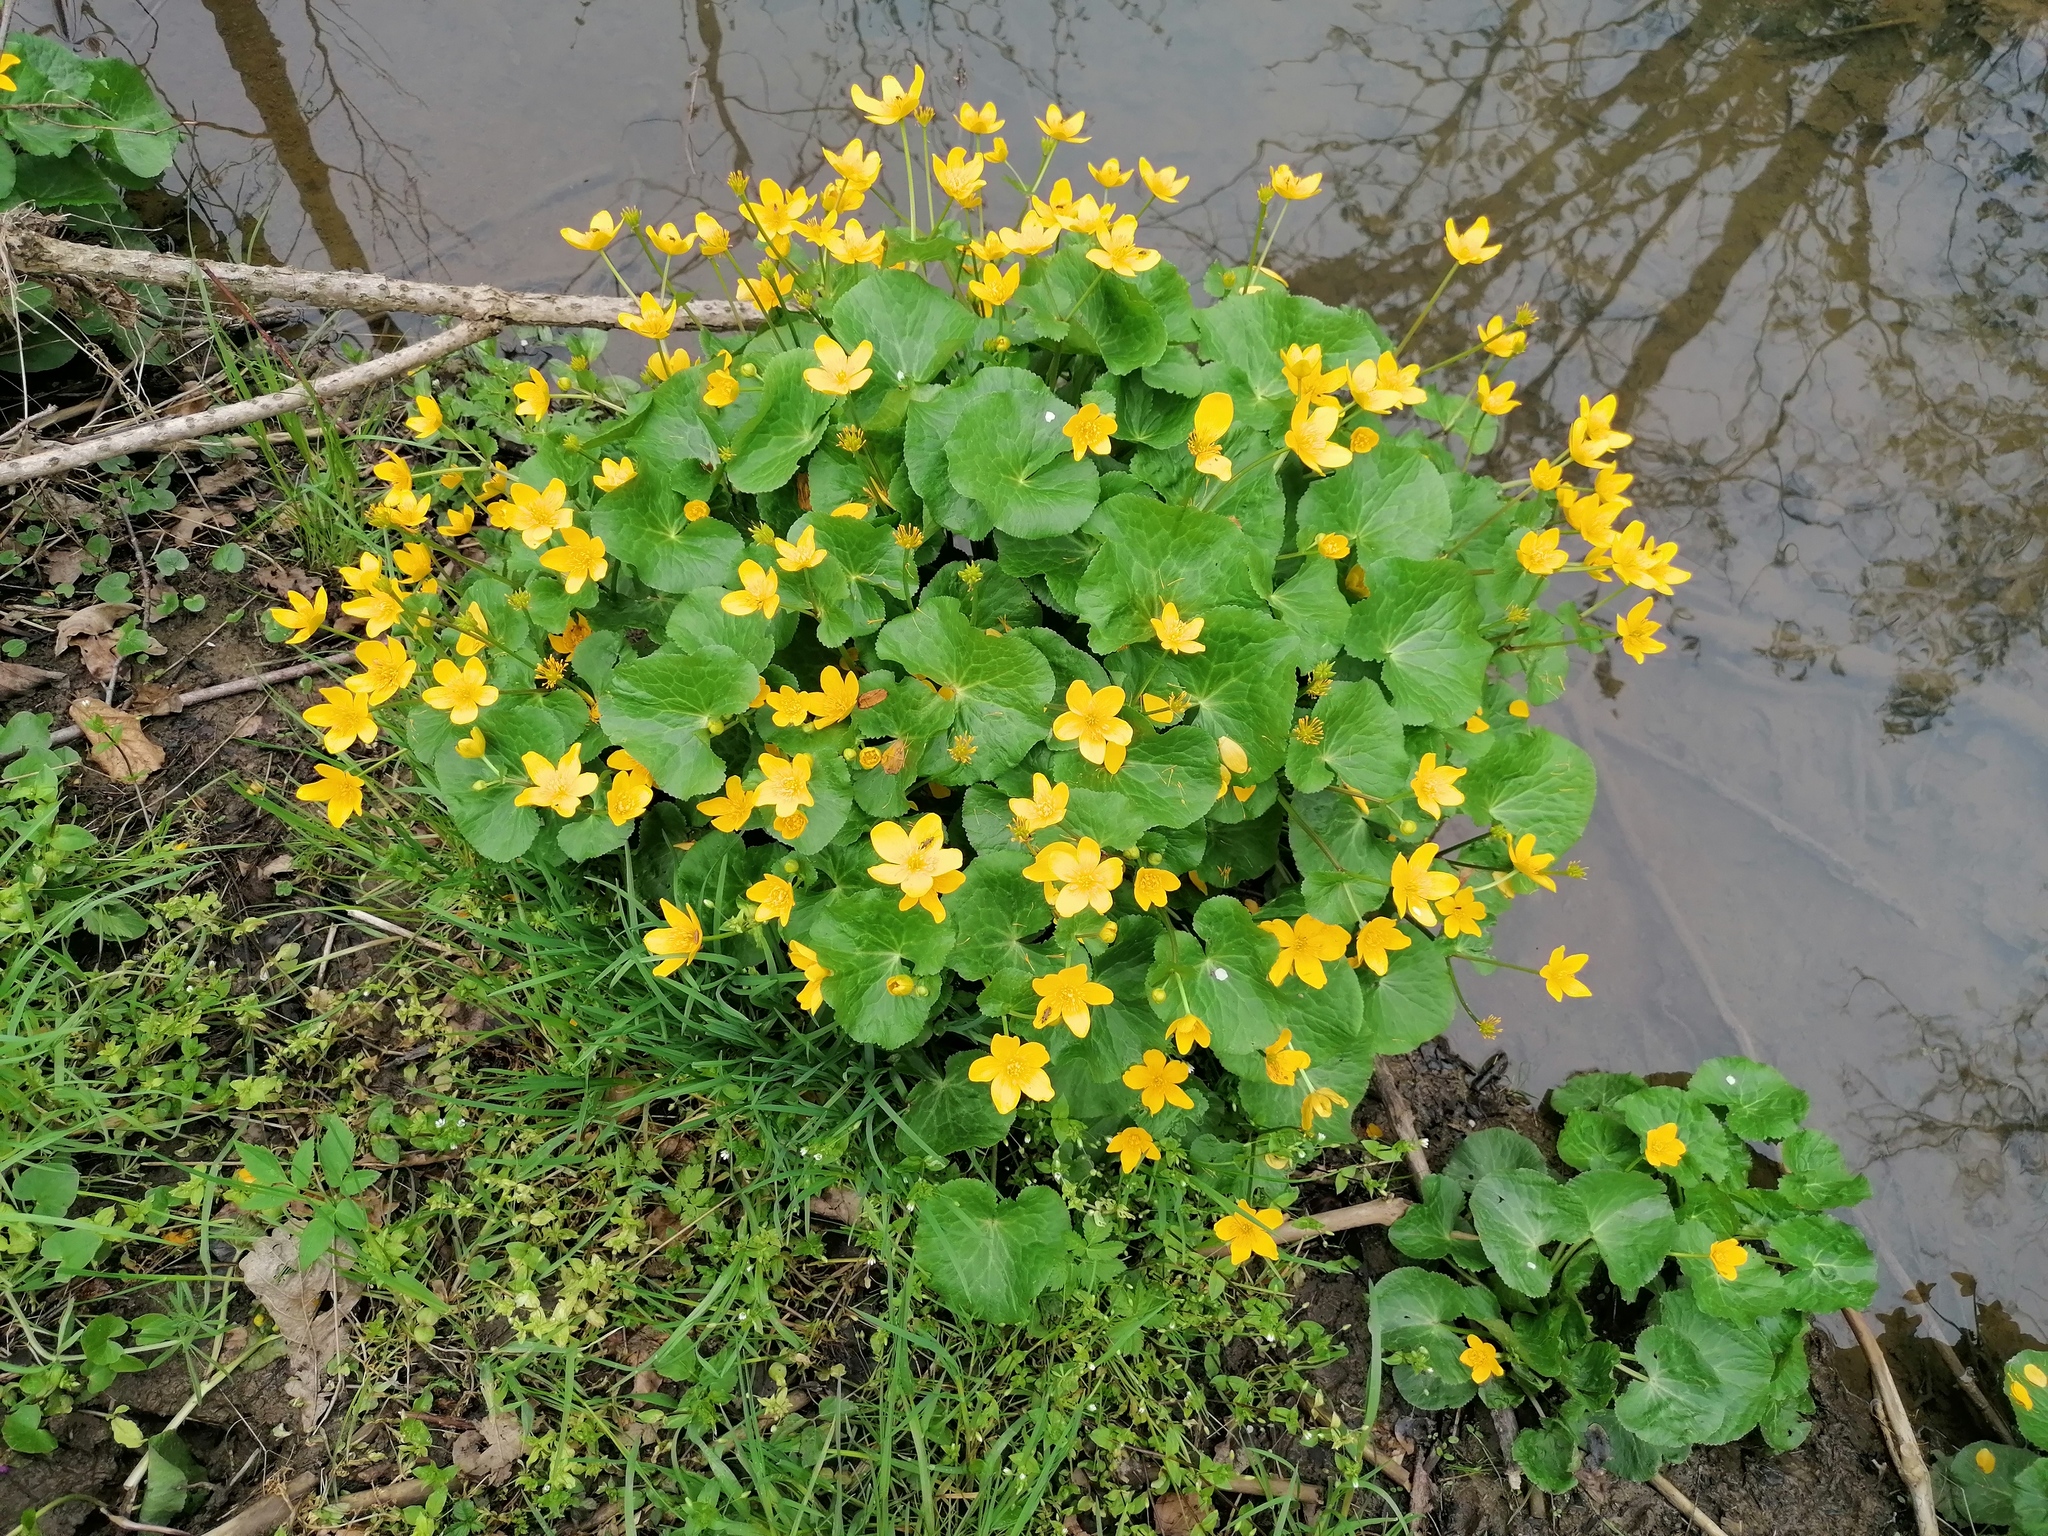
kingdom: Plantae
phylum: Tracheophyta
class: Magnoliopsida
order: Ranunculales
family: Ranunculaceae
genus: Caltha
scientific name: Caltha palustris
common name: Marsh marigold
